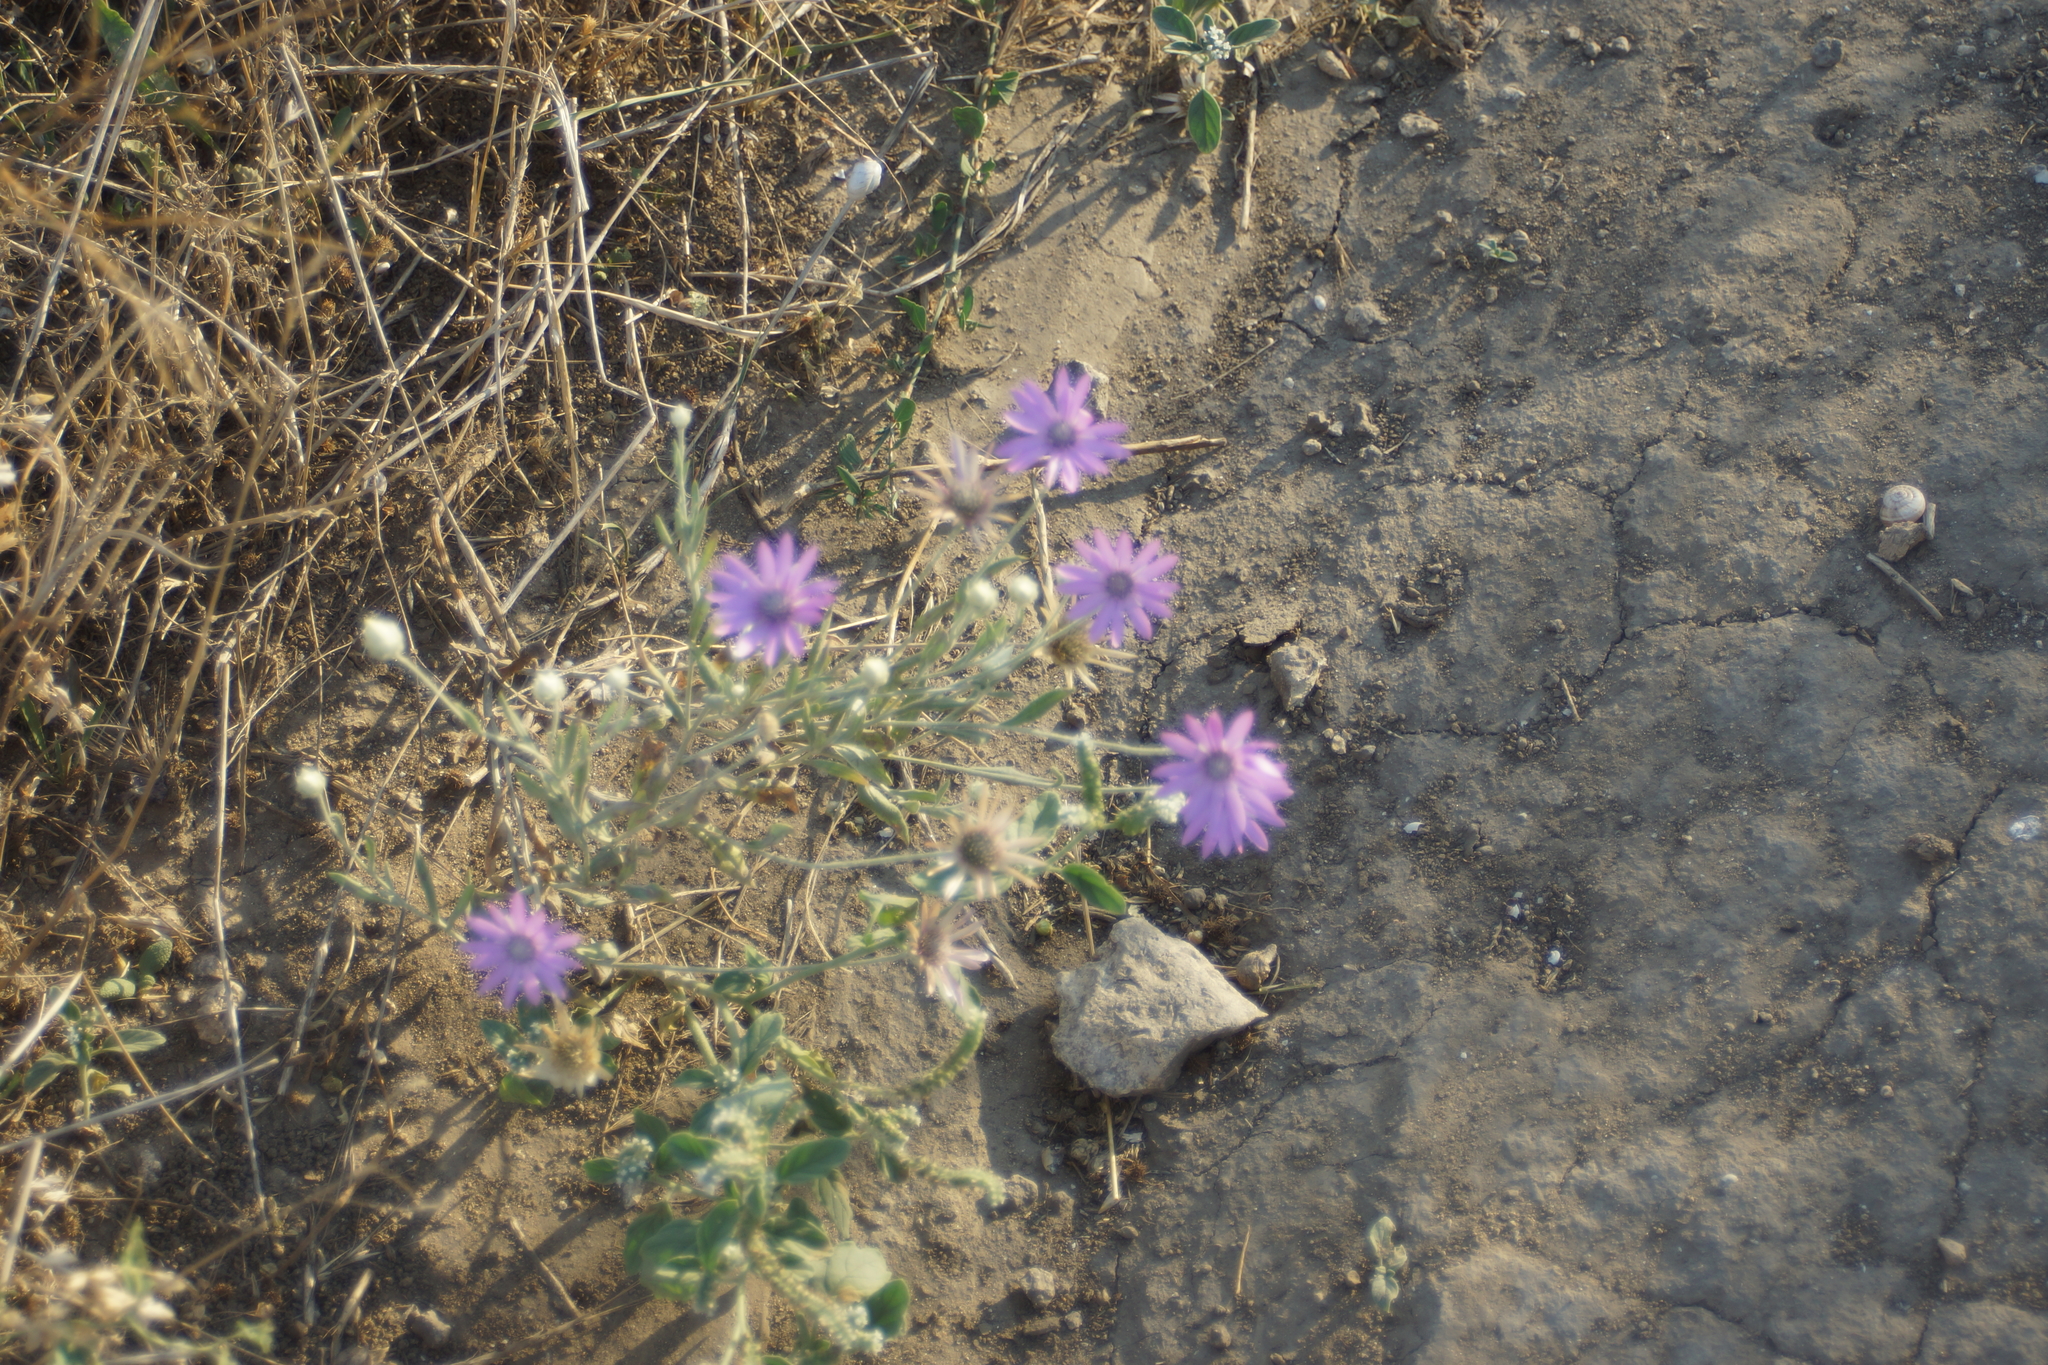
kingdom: Plantae
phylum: Tracheophyta
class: Magnoliopsida
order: Asterales
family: Asteraceae
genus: Xeranthemum
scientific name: Xeranthemum annuum
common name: Immortelle
